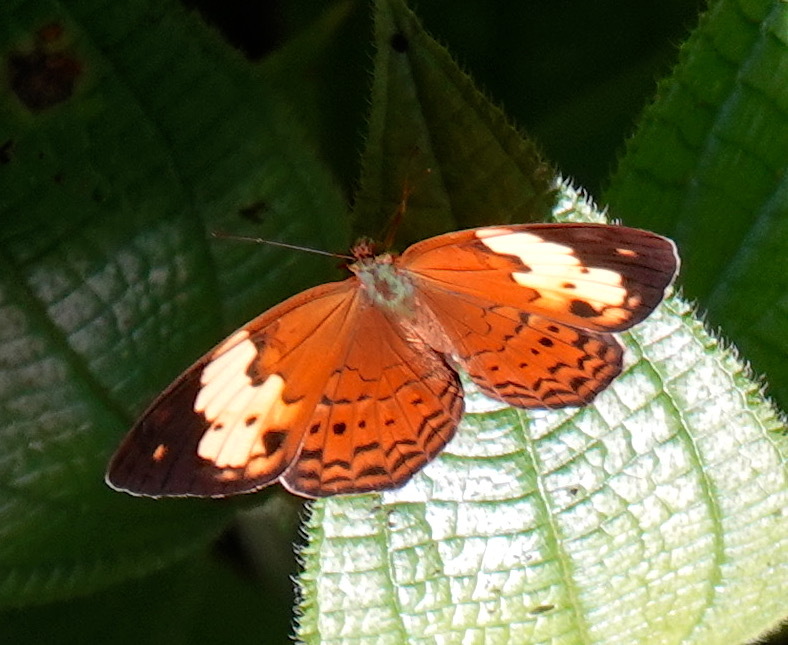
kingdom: Animalia
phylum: Arthropoda
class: Insecta
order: Lepidoptera
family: Nymphalidae
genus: Cupha
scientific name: Cupha erymanthis
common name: Rustic
